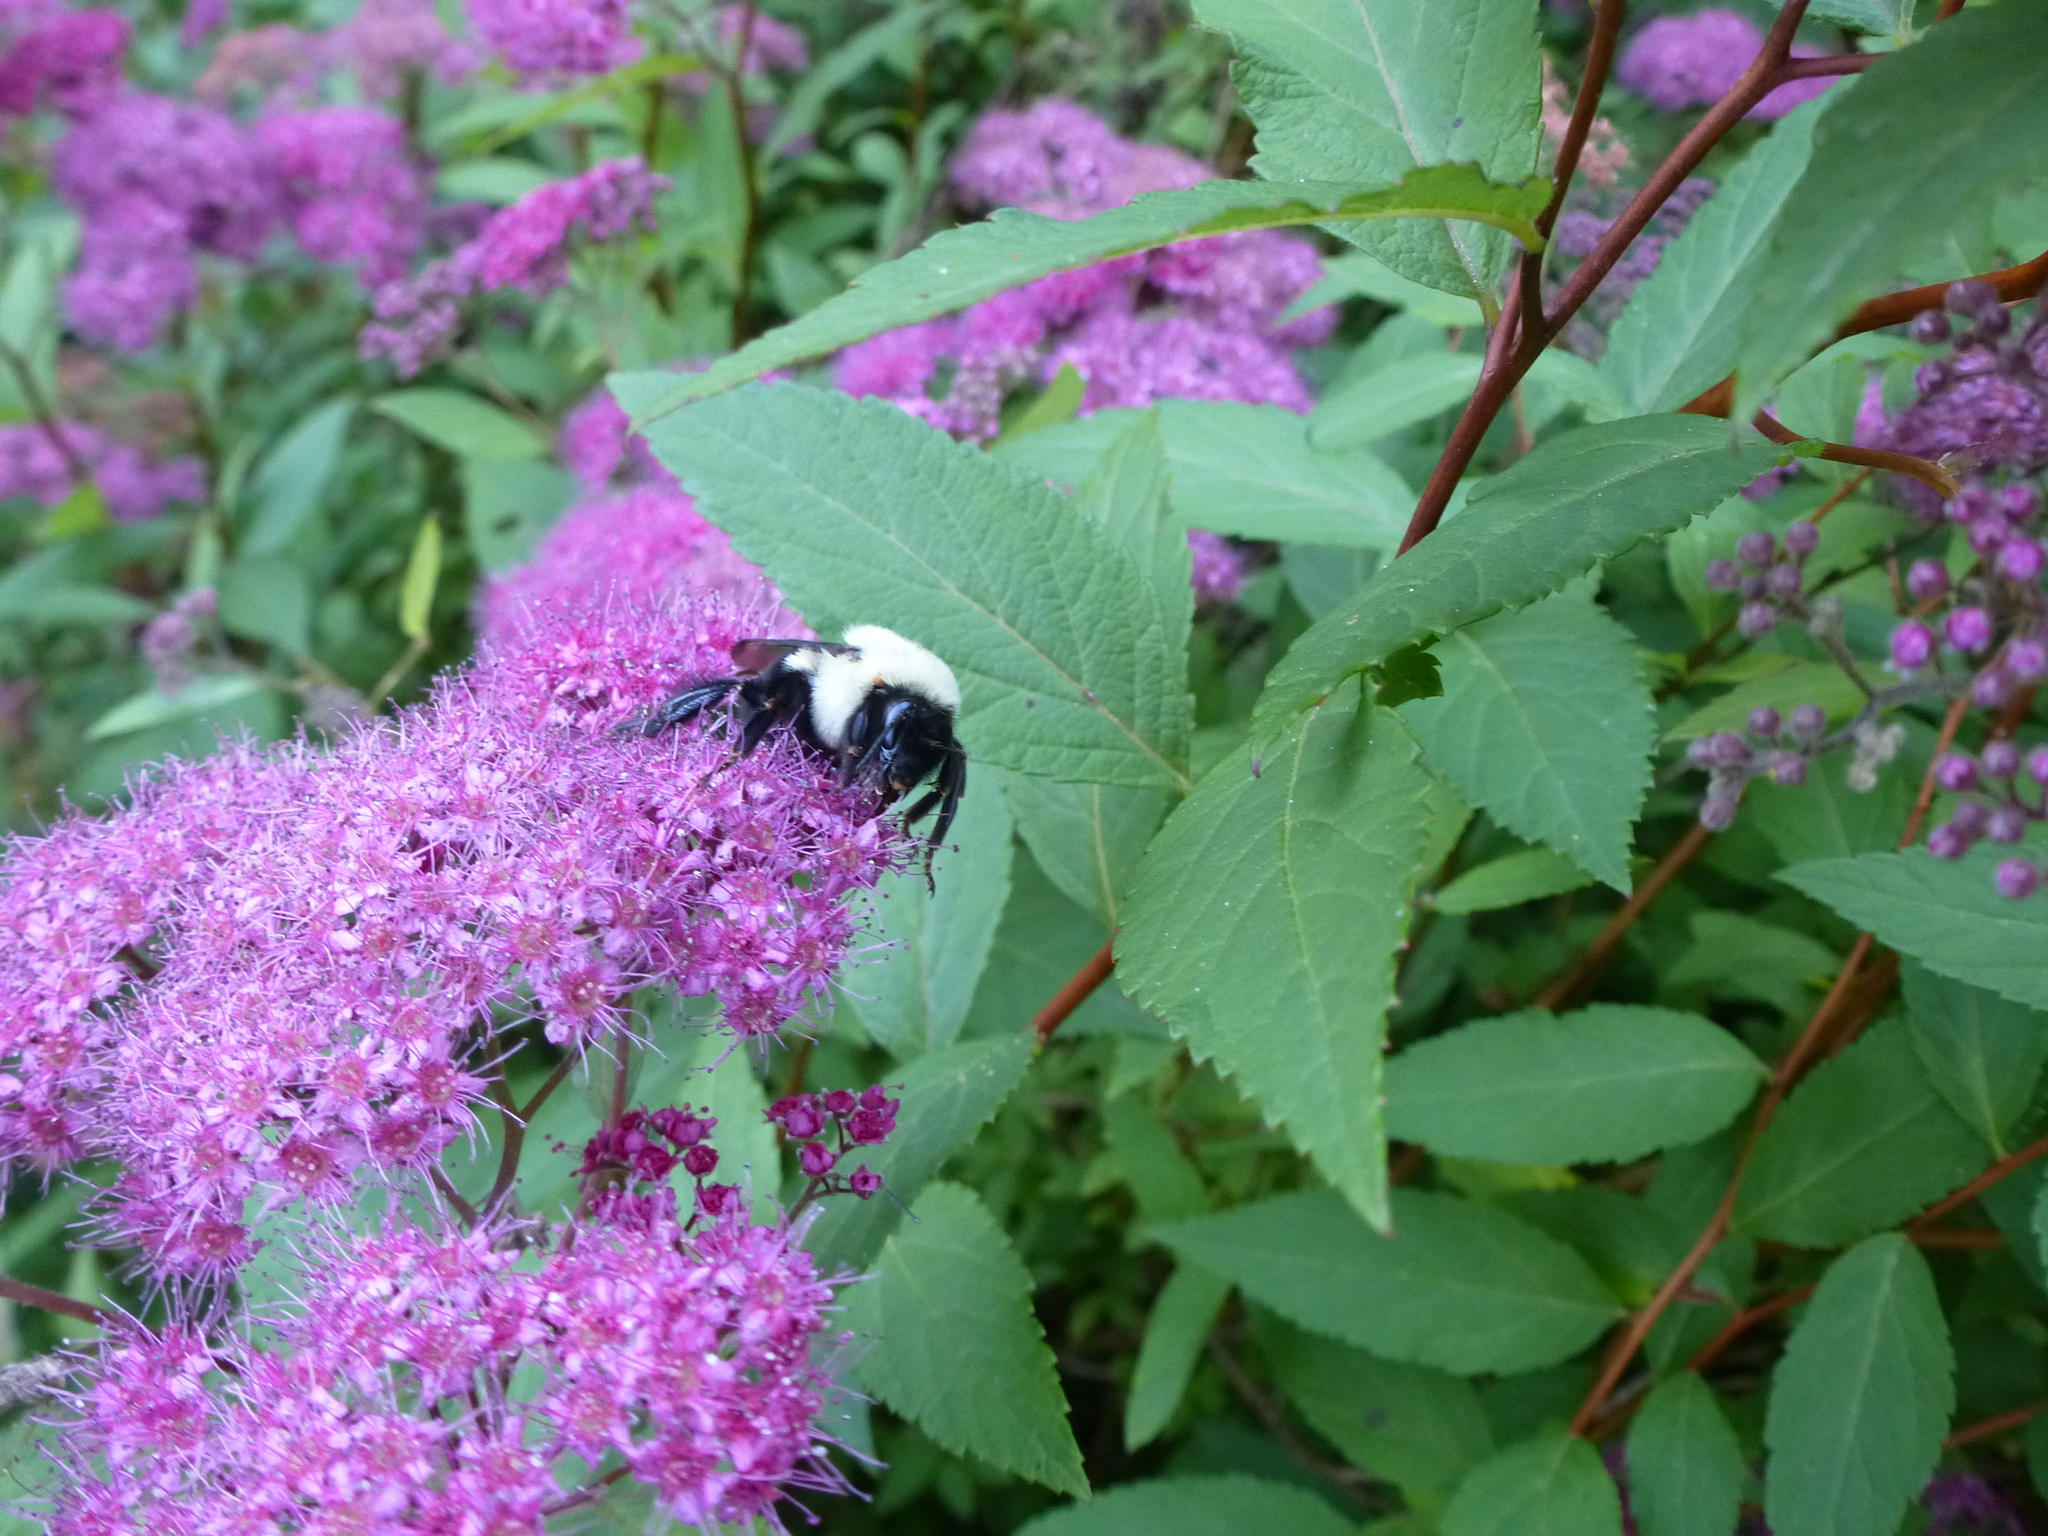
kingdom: Animalia
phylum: Arthropoda
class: Insecta
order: Hymenoptera
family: Apidae
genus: Bombus
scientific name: Bombus impatiens
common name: Common eastern bumble bee
